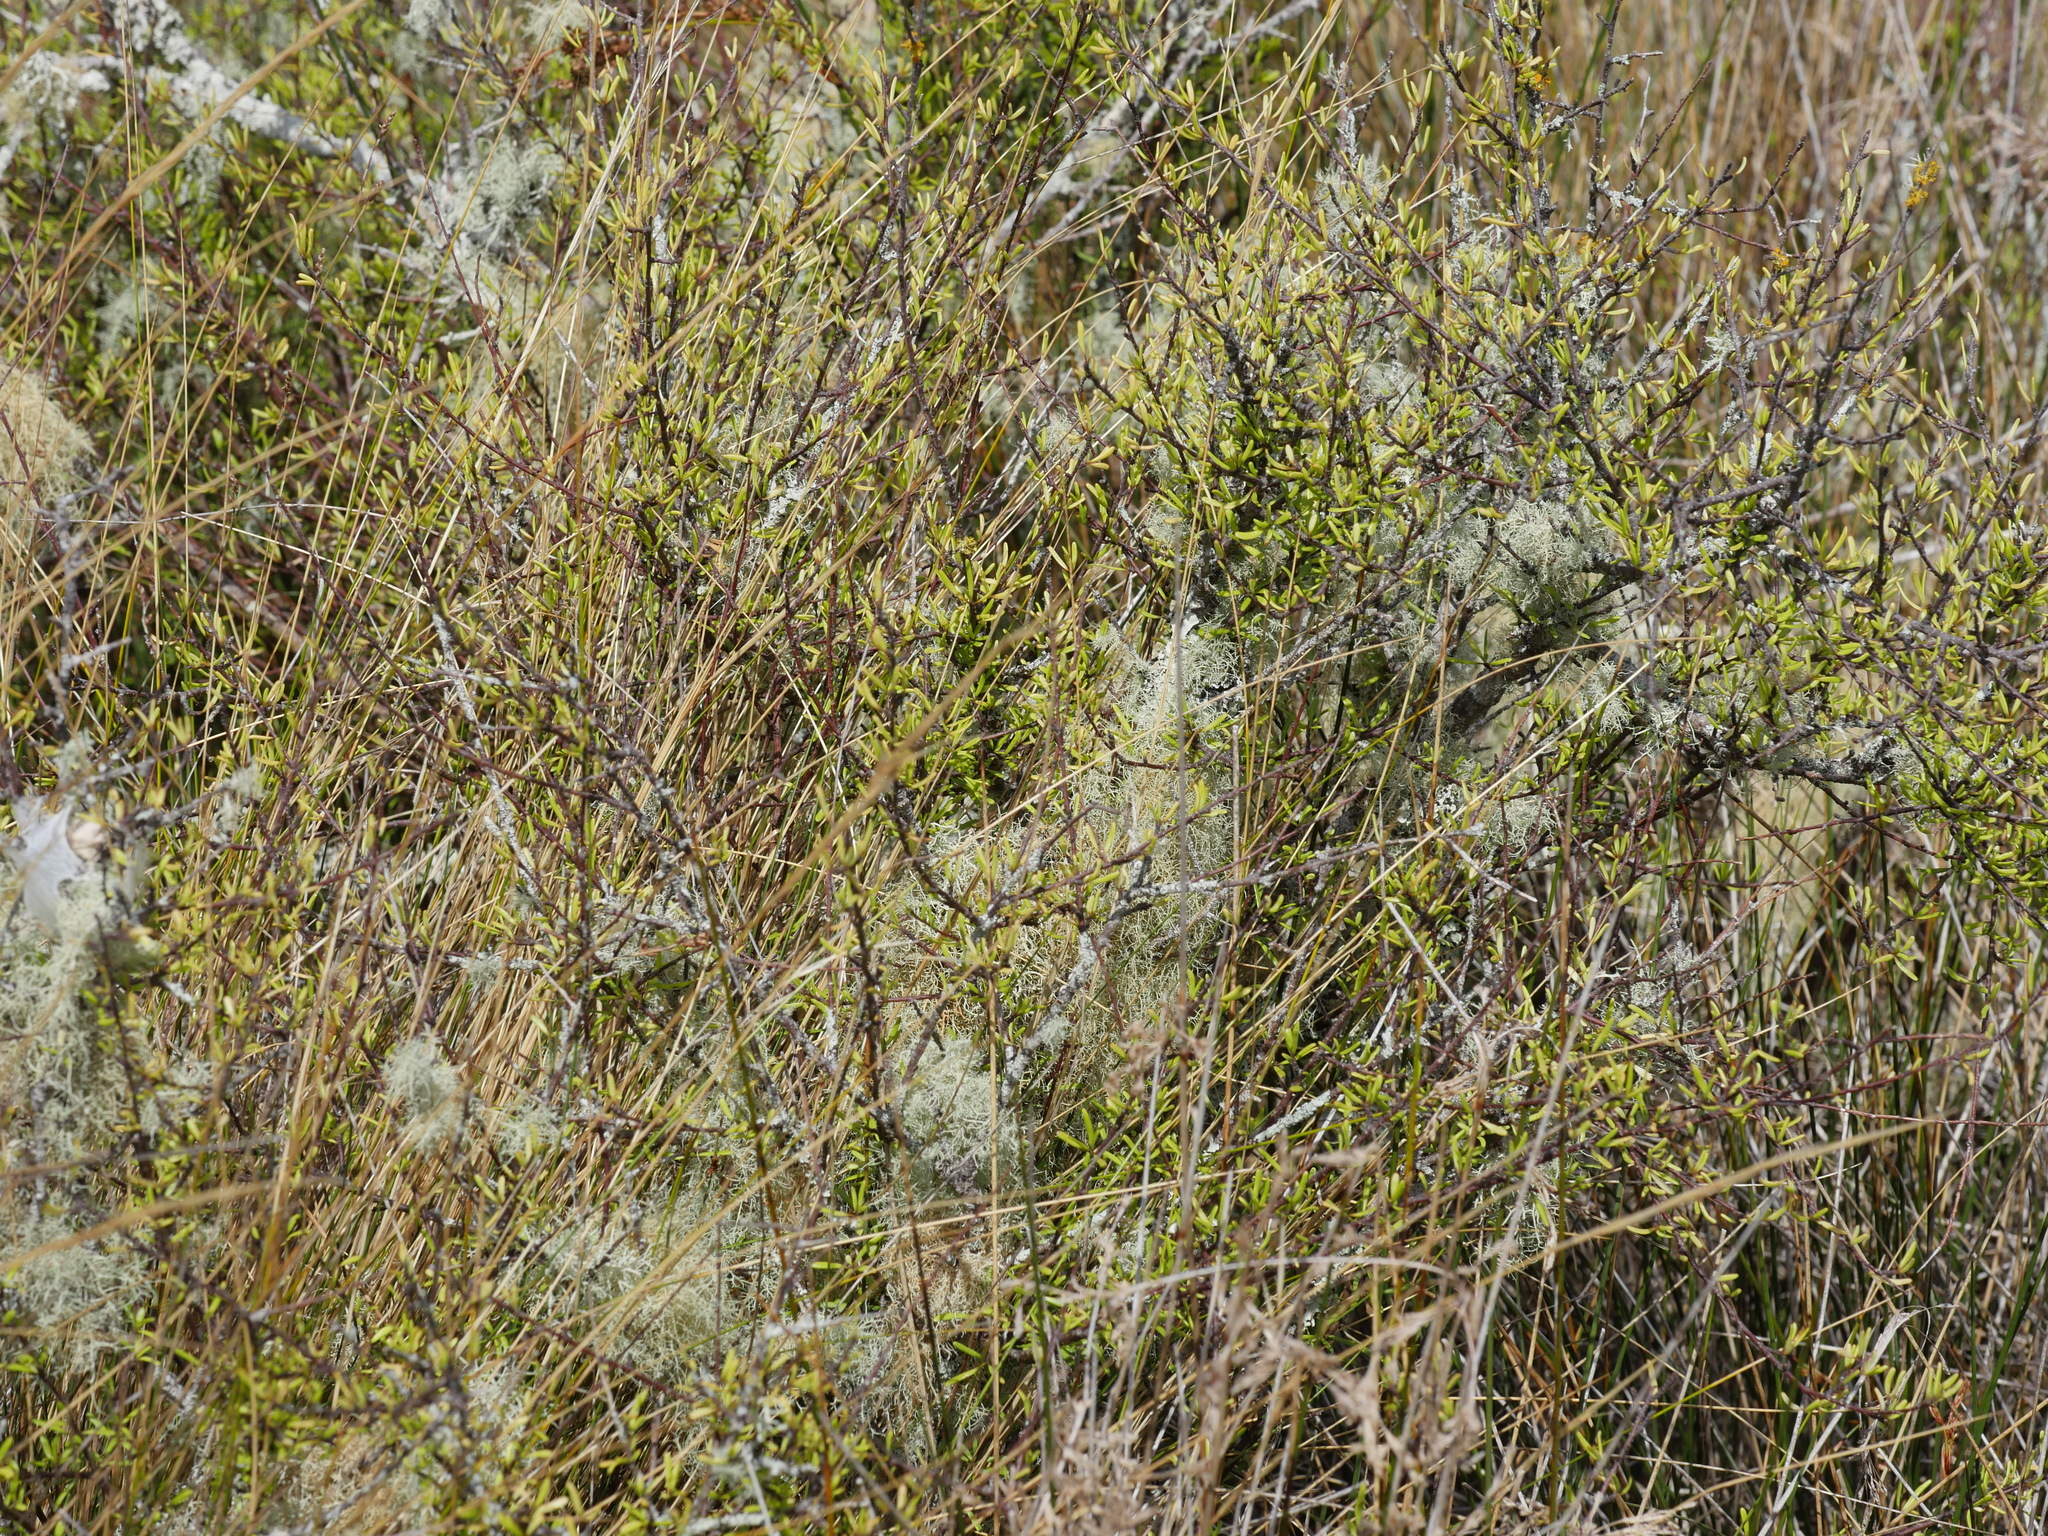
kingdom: Plantae
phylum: Tracheophyta
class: Magnoliopsida
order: Malvales
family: Malvaceae
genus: Plagianthus
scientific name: Plagianthus divaricatus
